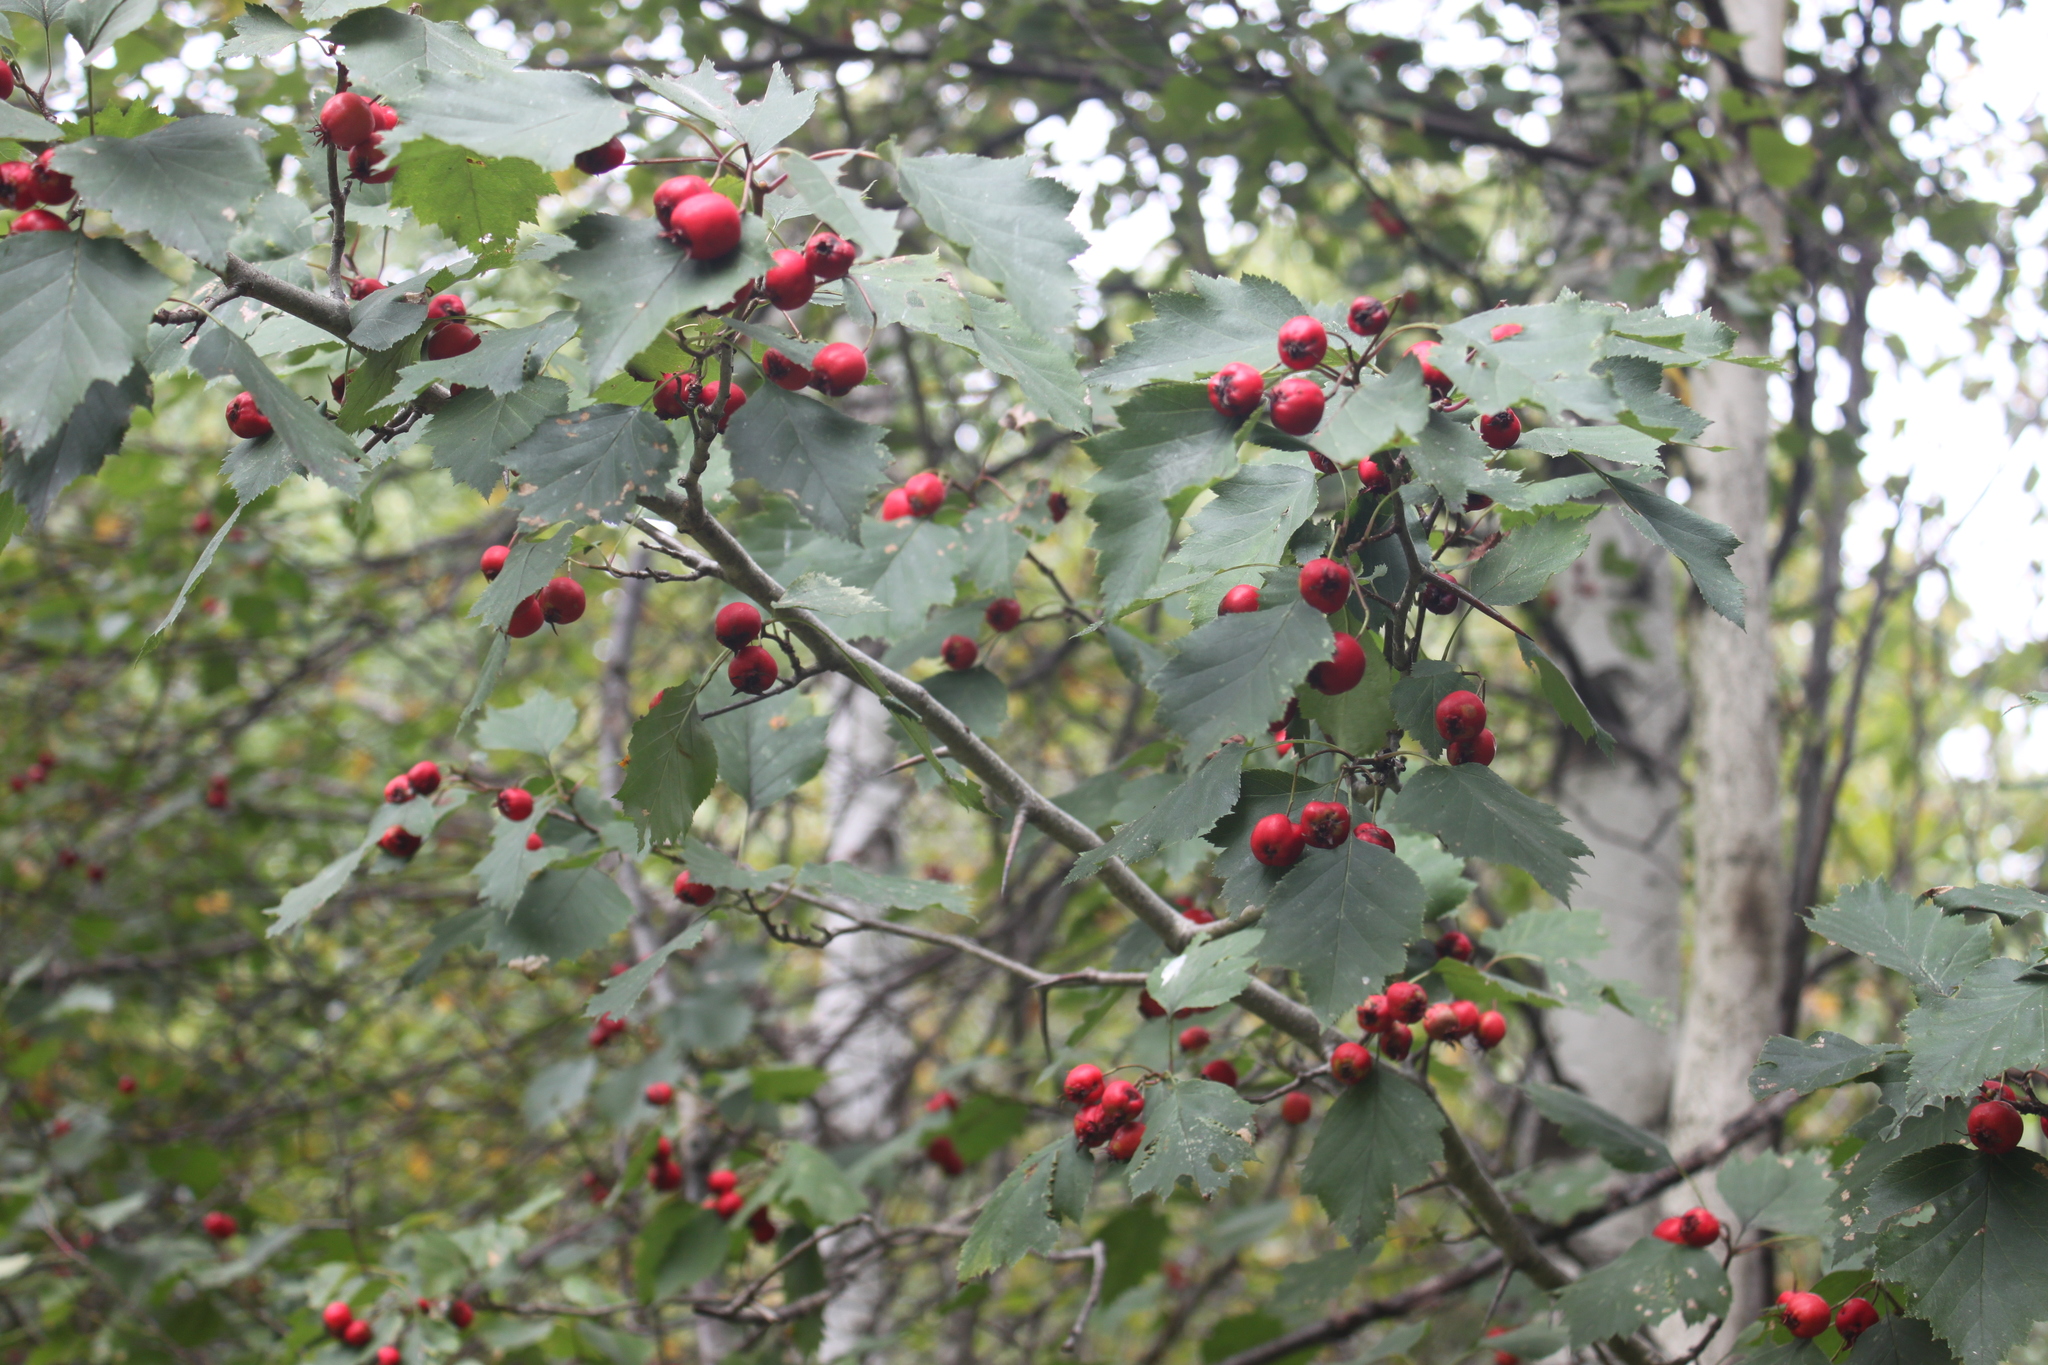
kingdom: Plantae
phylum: Tracheophyta
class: Magnoliopsida
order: Rosales
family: Rosaceae
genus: Crataegus
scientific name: Crataegus schuettei
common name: Schuette's hawthorn
